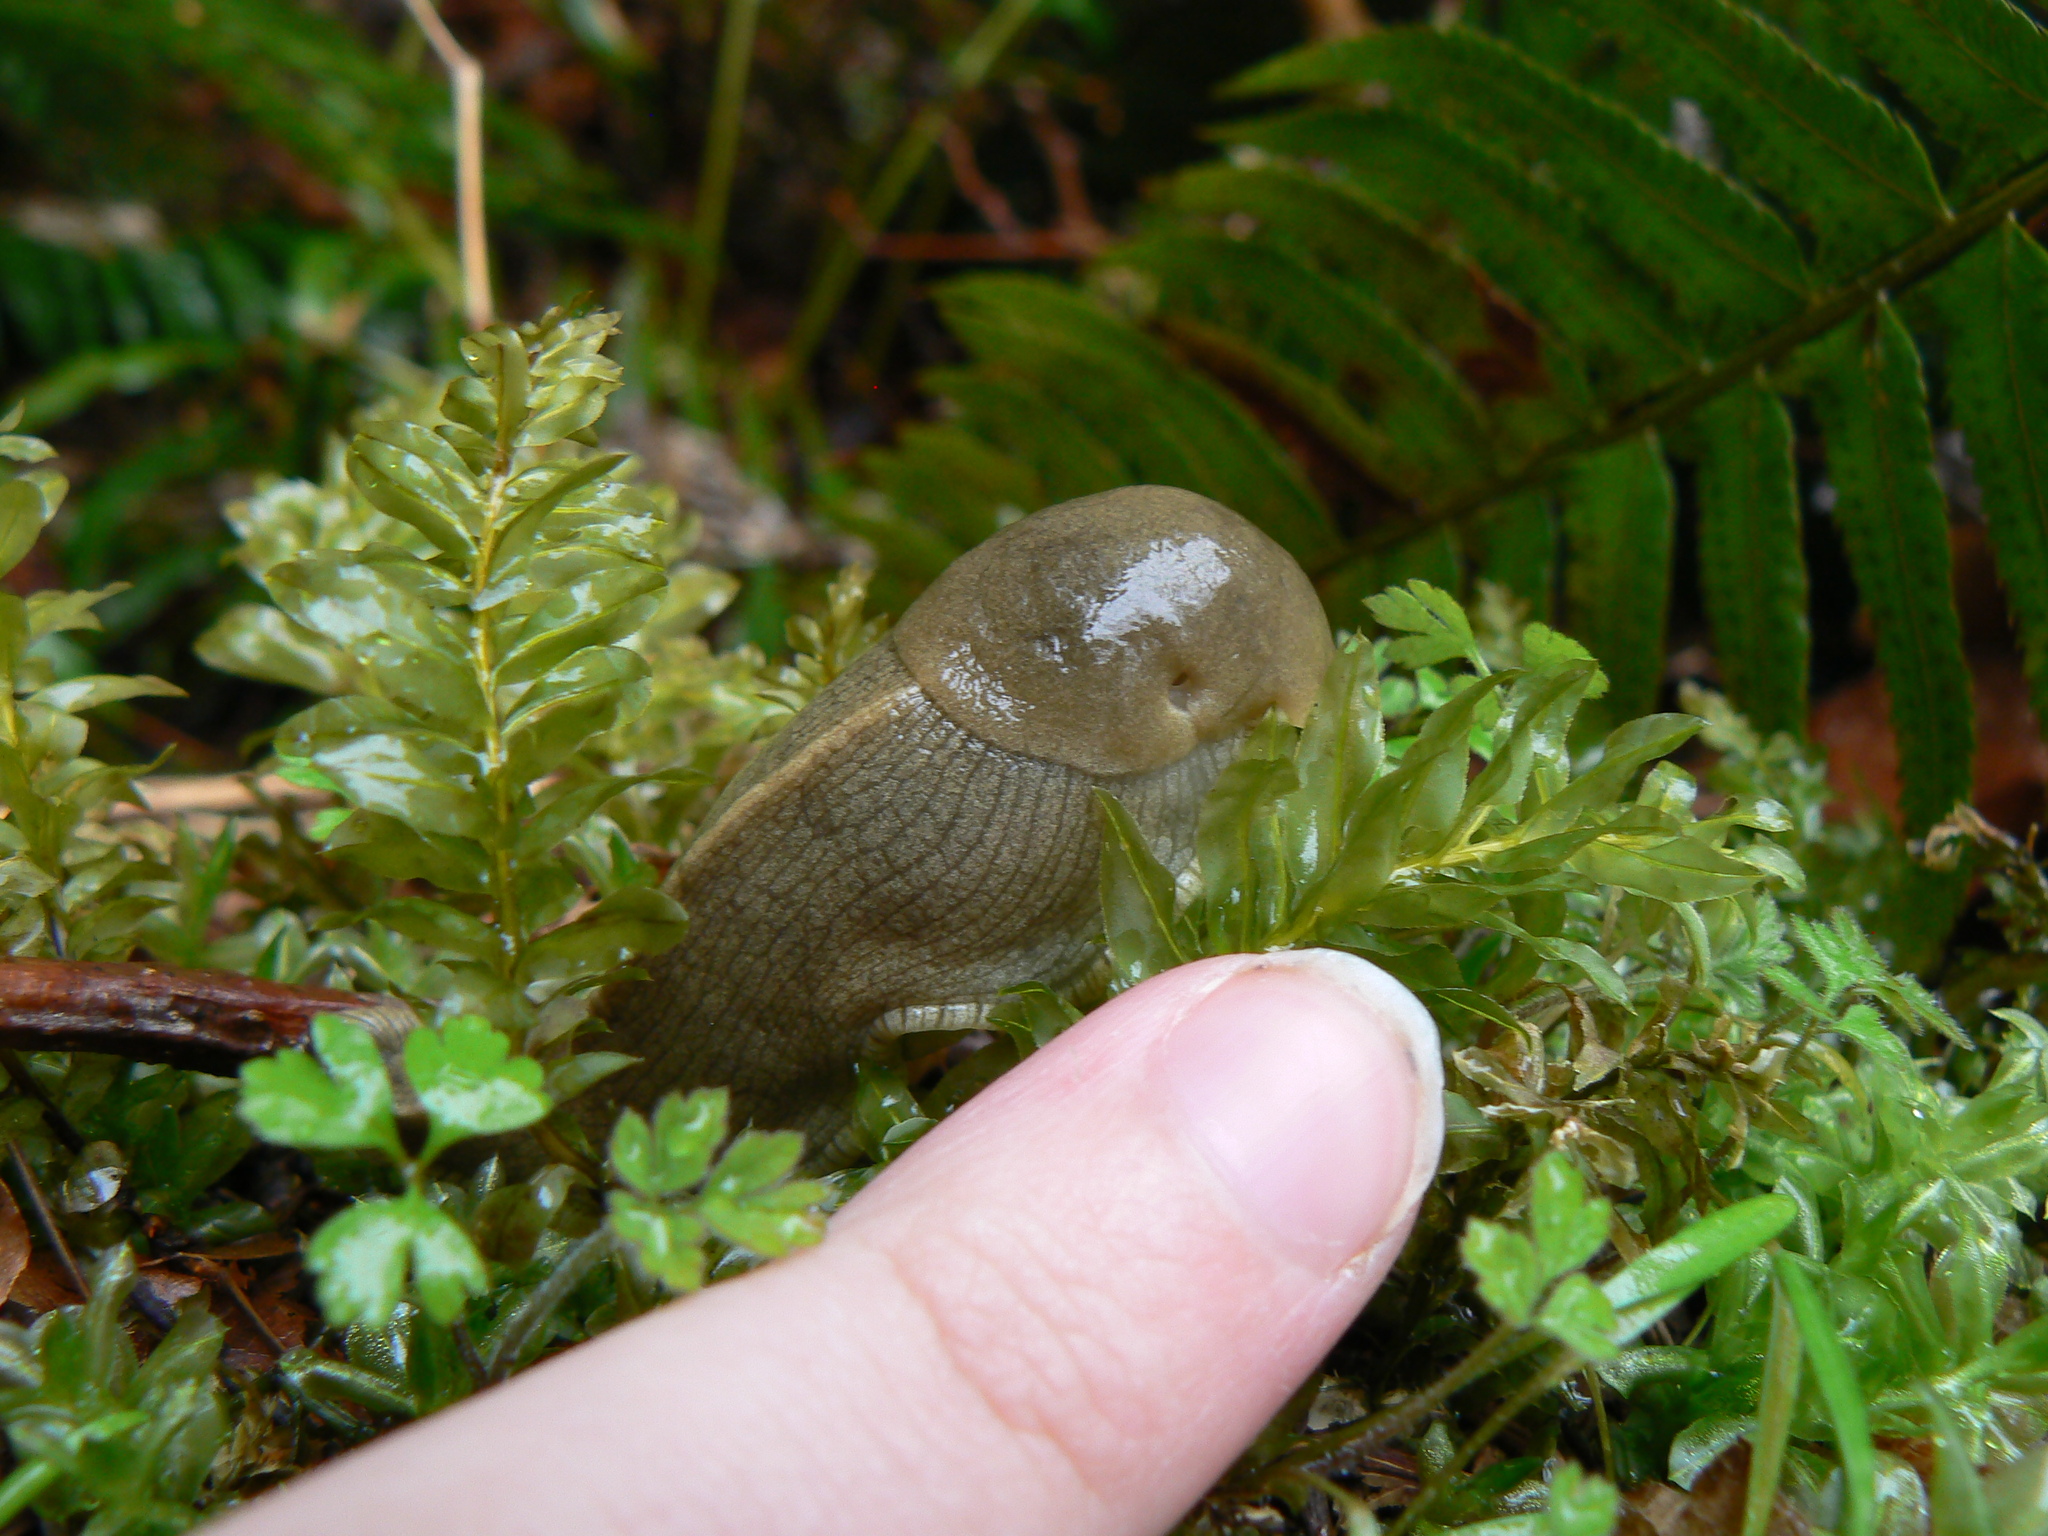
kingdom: Animalia
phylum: Mollusca
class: Gastropoda
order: Stylommatophora
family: Ariolimacidae
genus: Ariolimax
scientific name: Ariolimax columbianus
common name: Pacific banana slug
